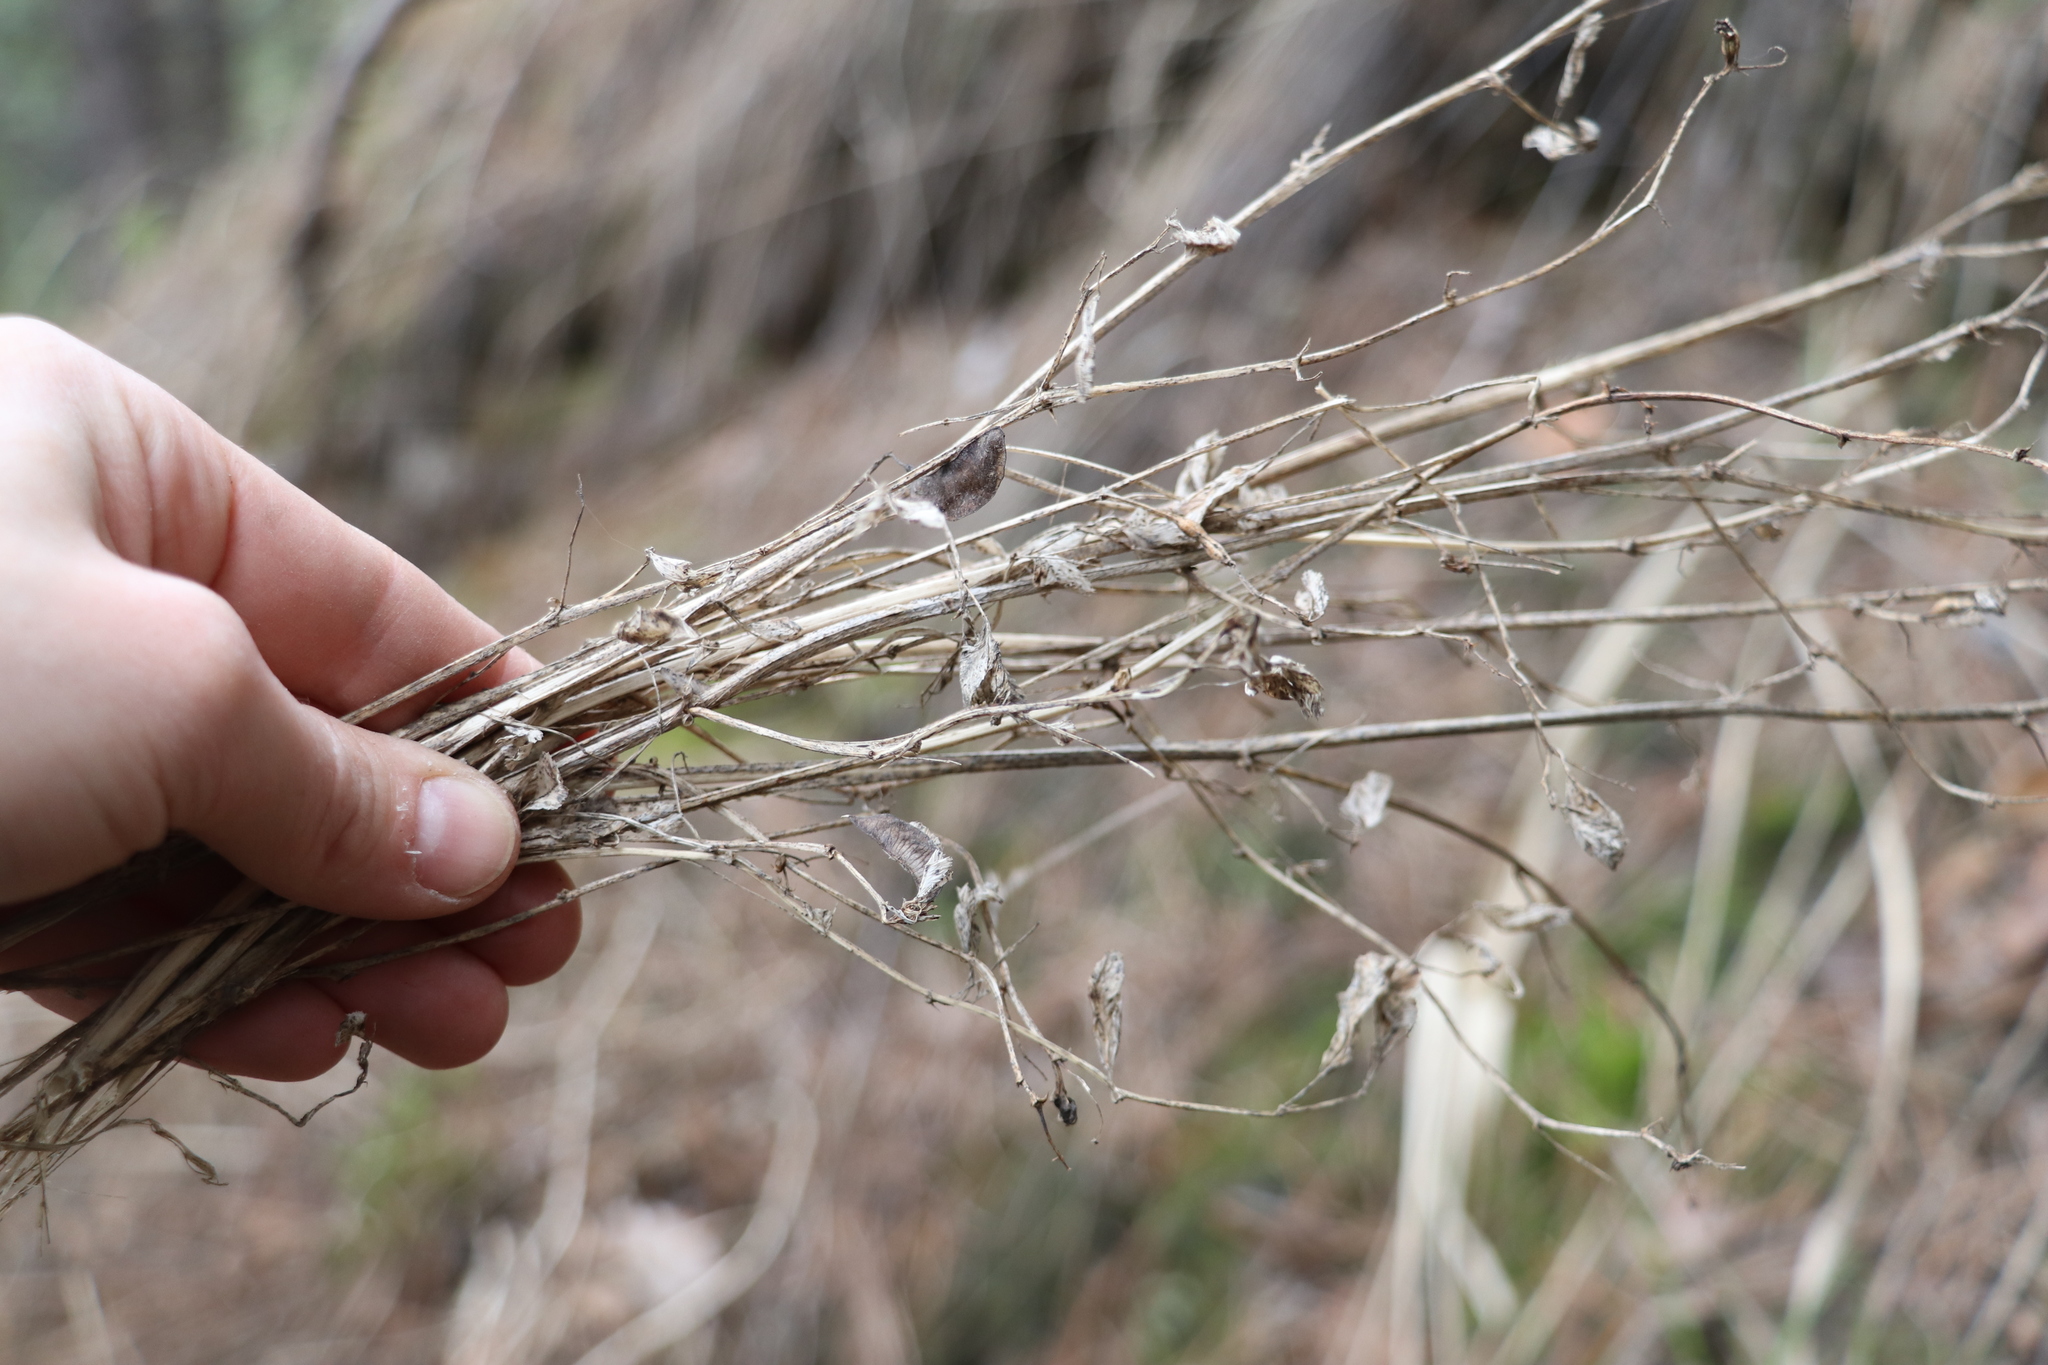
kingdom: Plantae
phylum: Tracheophyta
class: Magnoliopsida
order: Fabales
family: Fabaceae
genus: Medicago
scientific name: Medicago platycarpos
